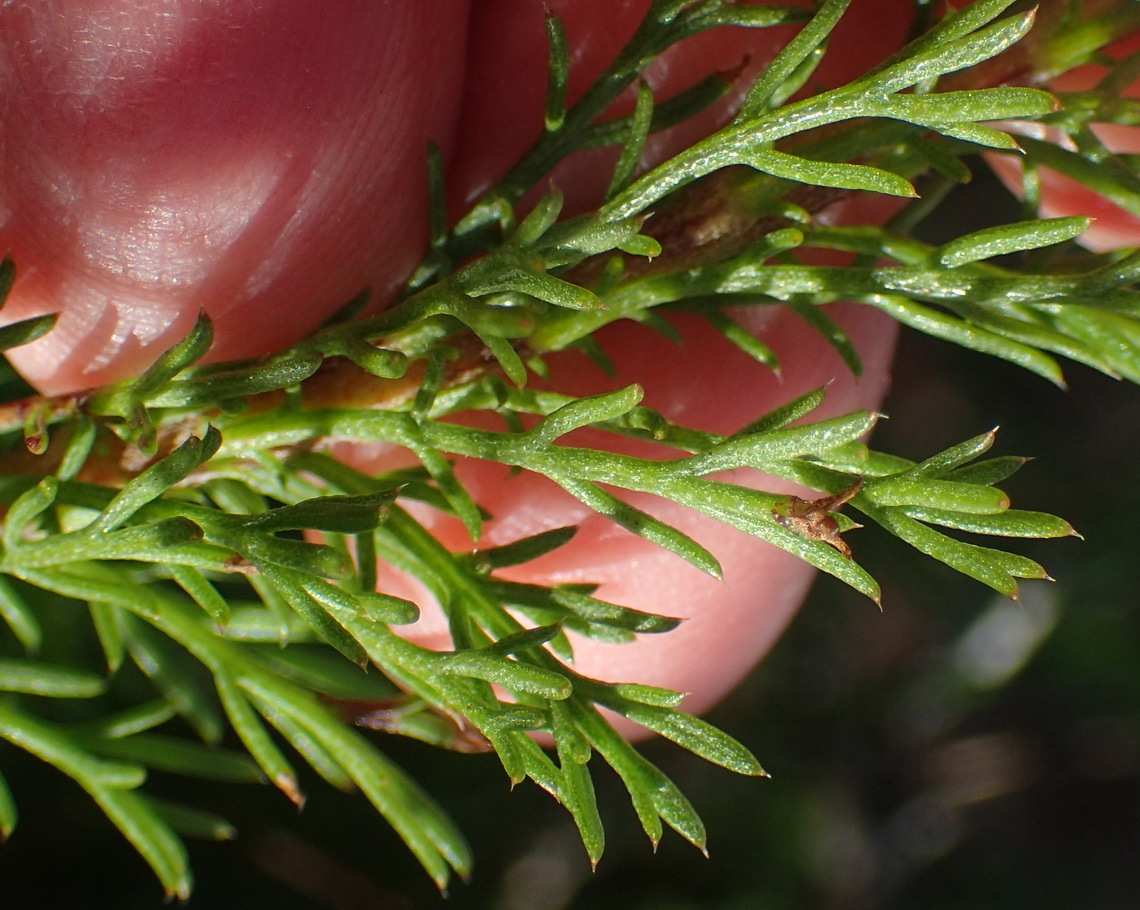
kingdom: Plantae
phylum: Tracheophyta
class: Magnoliopsida
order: Asterales
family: Asteraceae
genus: Ursinia
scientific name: Ursinia anethoides
